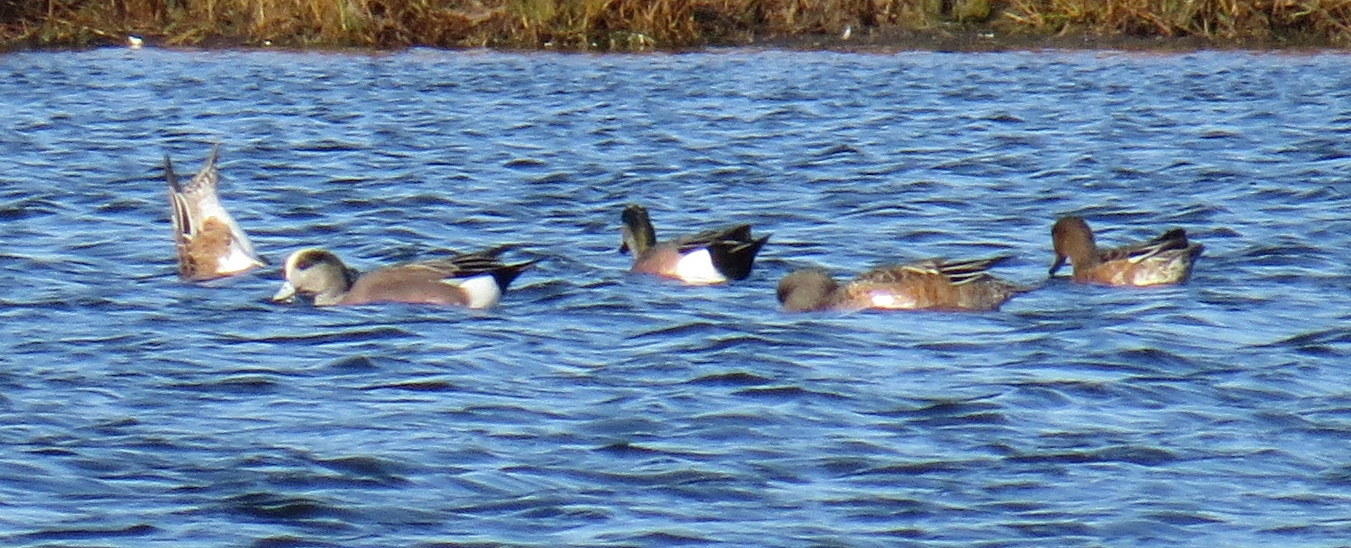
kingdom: Animalia
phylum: Chordata
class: Aves
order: Anseriformes
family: Anatidae
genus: Mareca
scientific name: Mareca americana
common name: American wigeon
